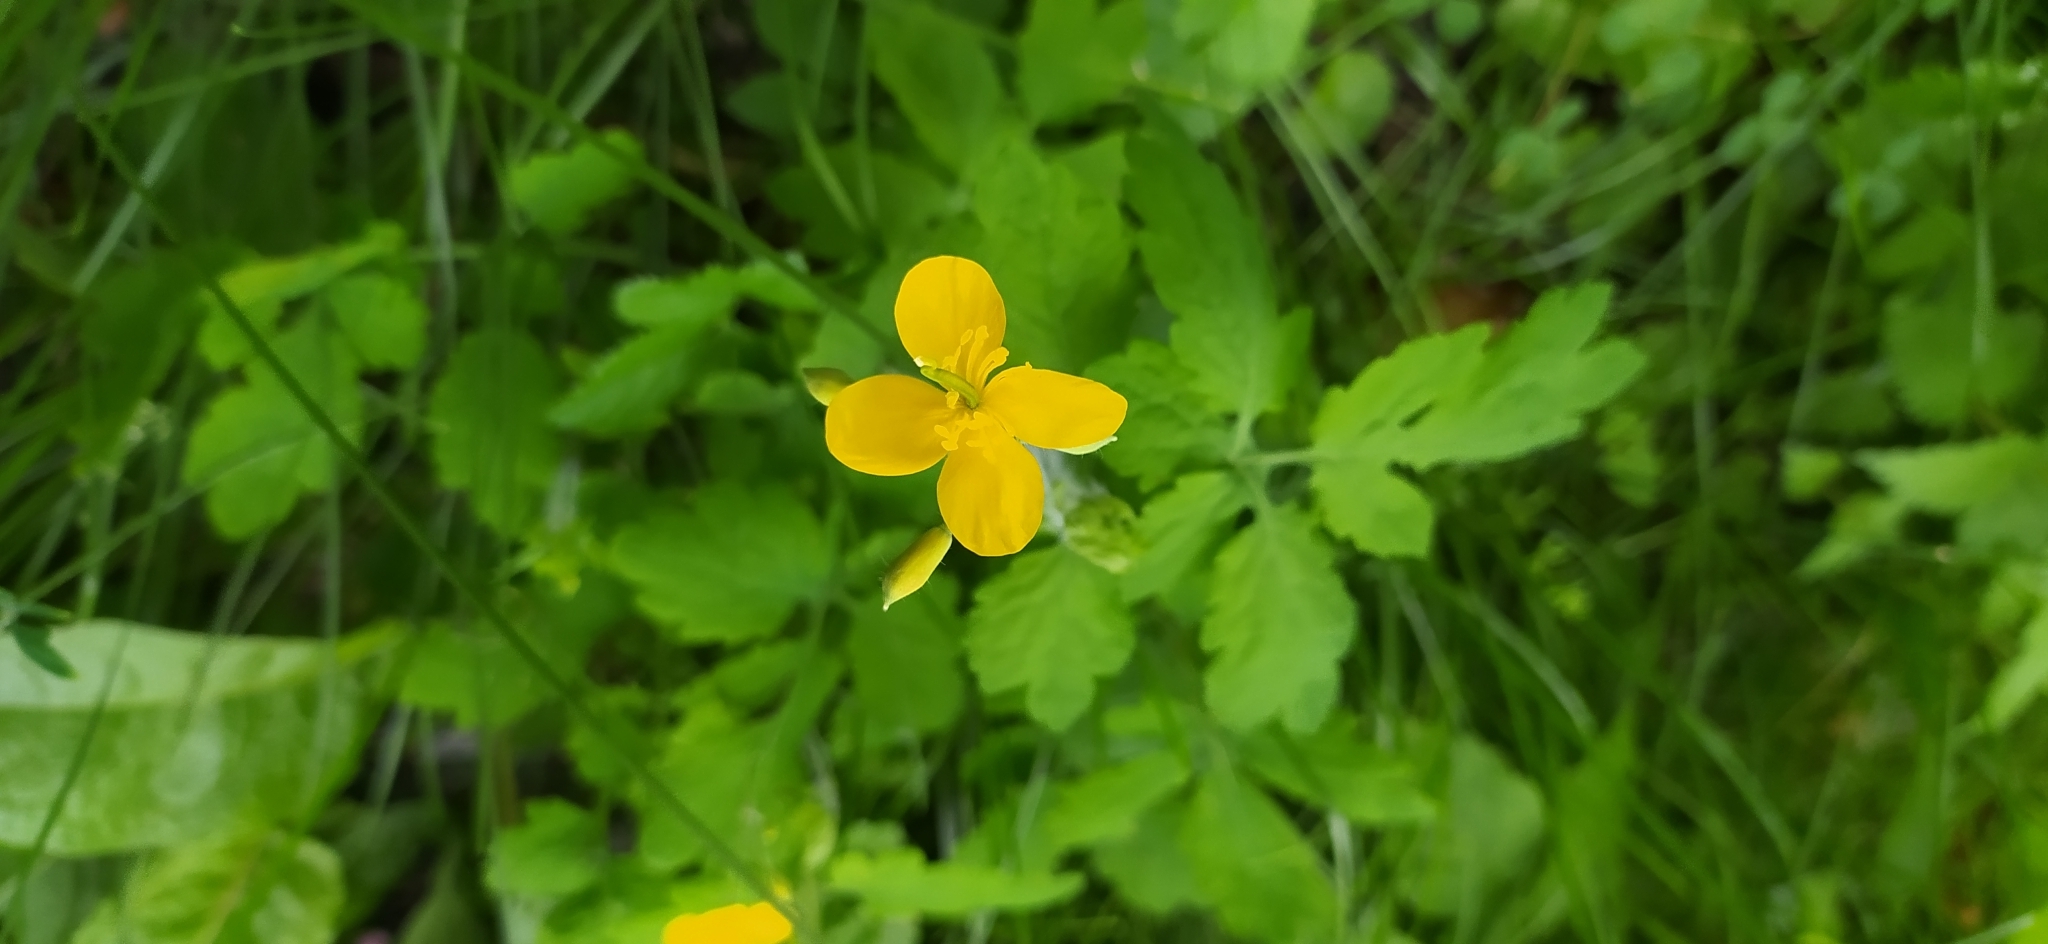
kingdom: Plantae
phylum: Tracheophyta
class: Magnoliopsida
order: Ranunculales
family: Papaveraceae
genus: Chelidonium
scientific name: Chelidonium majus
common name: Greater celandine
